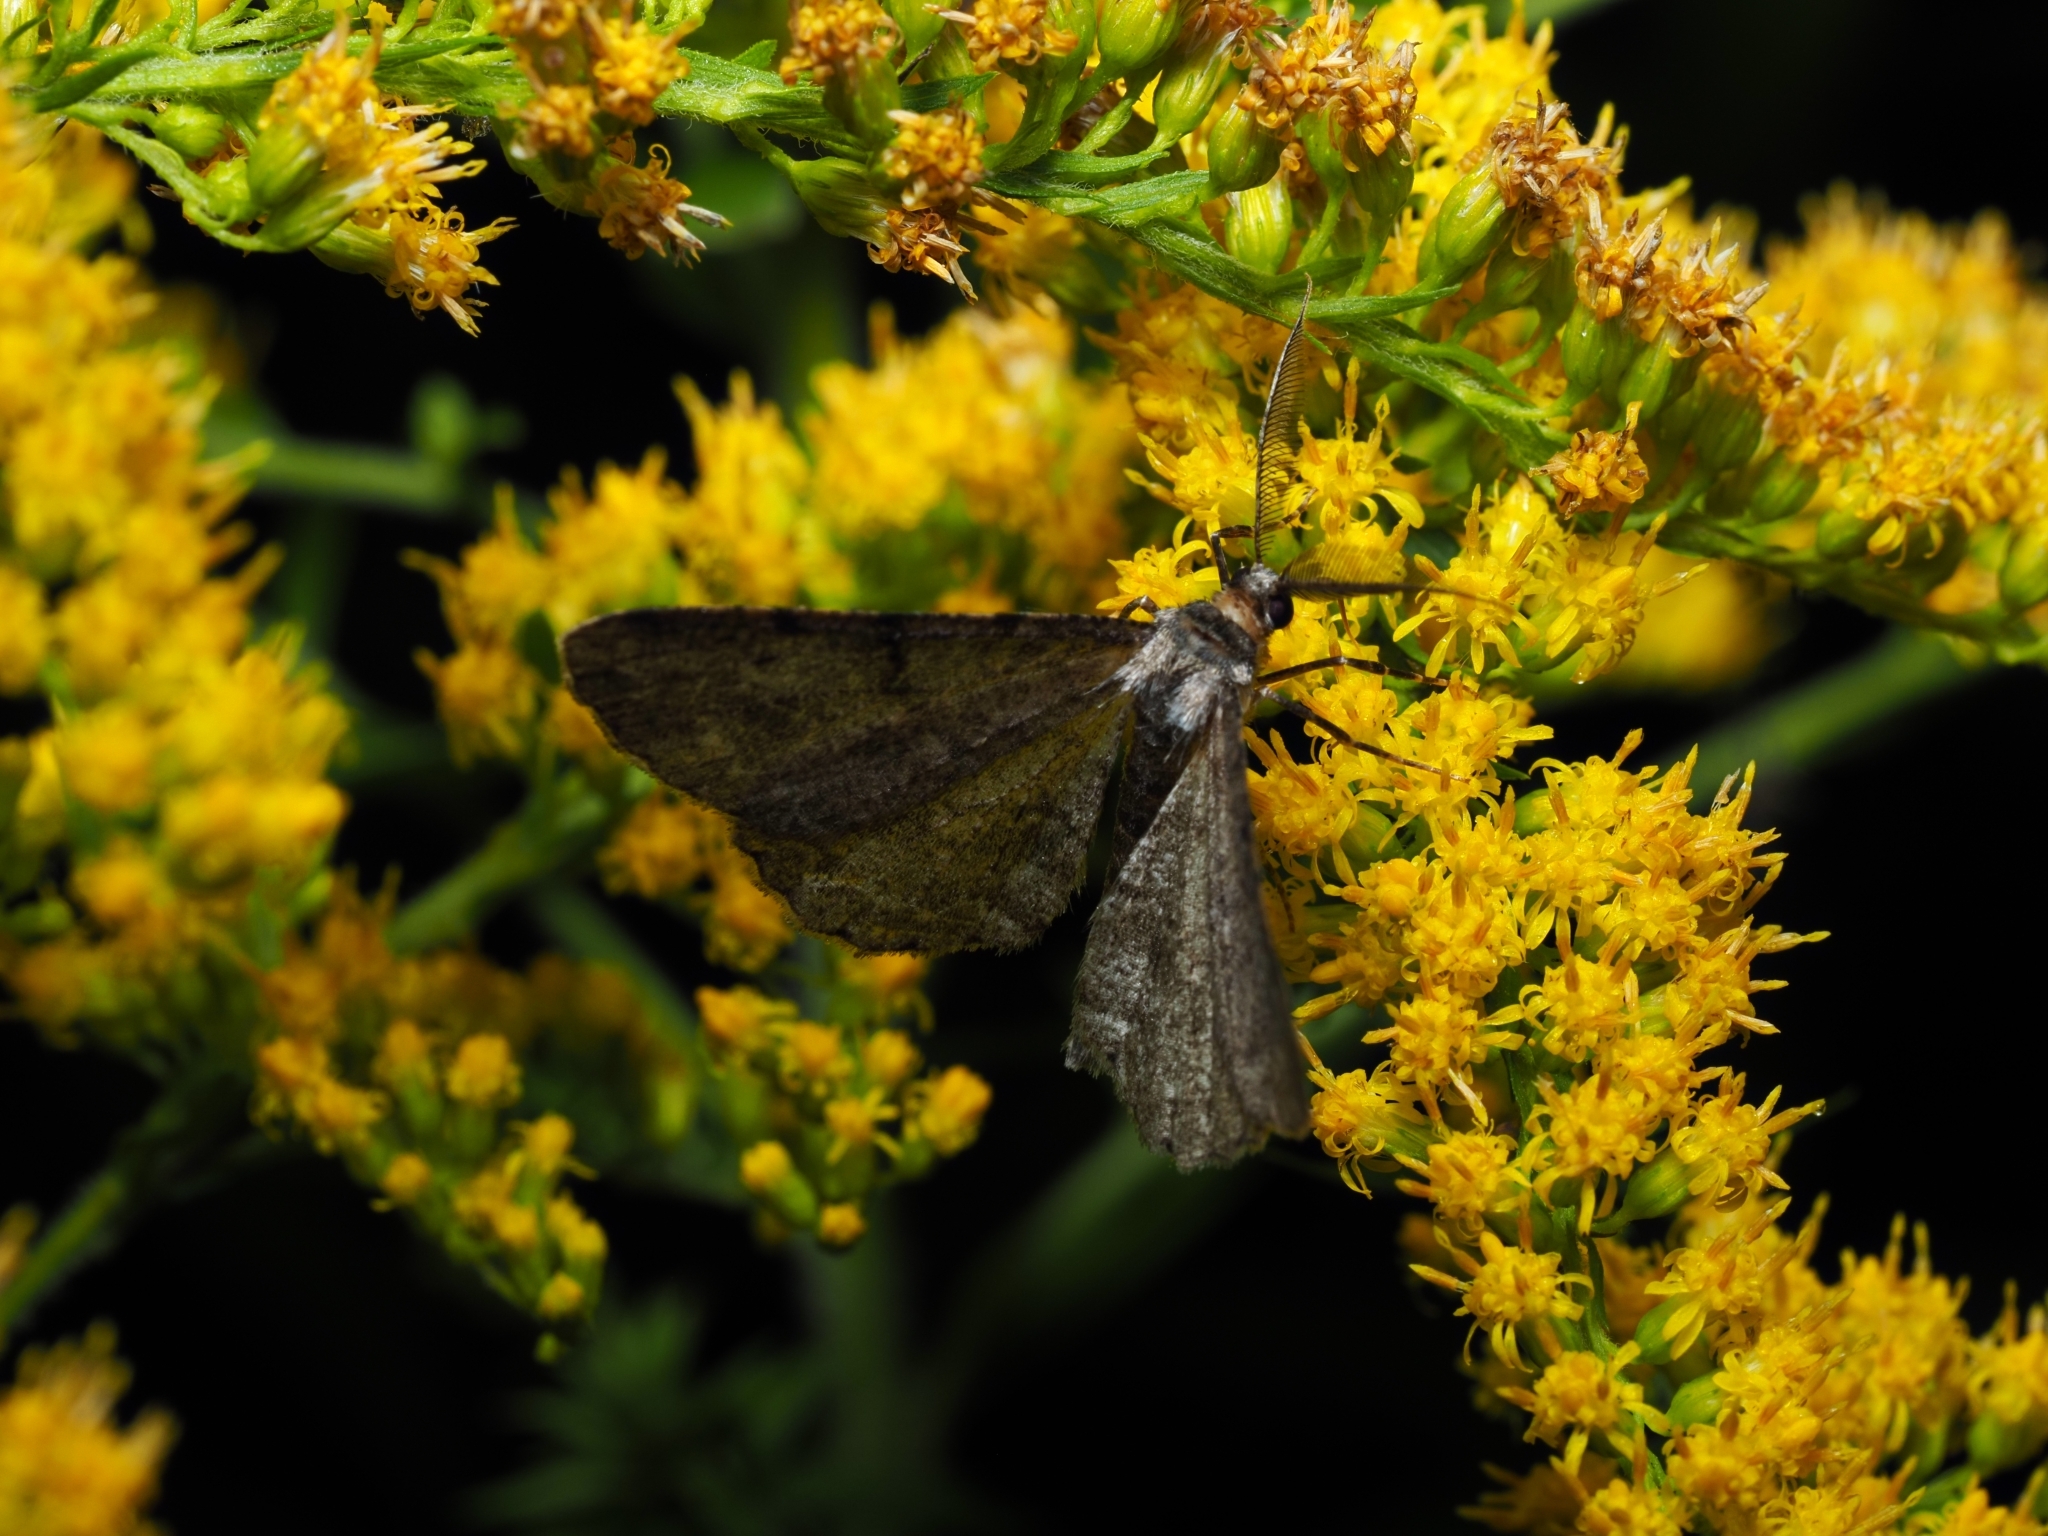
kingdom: Animalia
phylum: Arthropoda
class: Insecta
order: Lepidoptera
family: Geometridae
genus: Peribatodes
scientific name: Peribatodes rhomboidaria
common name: Willow beauty
